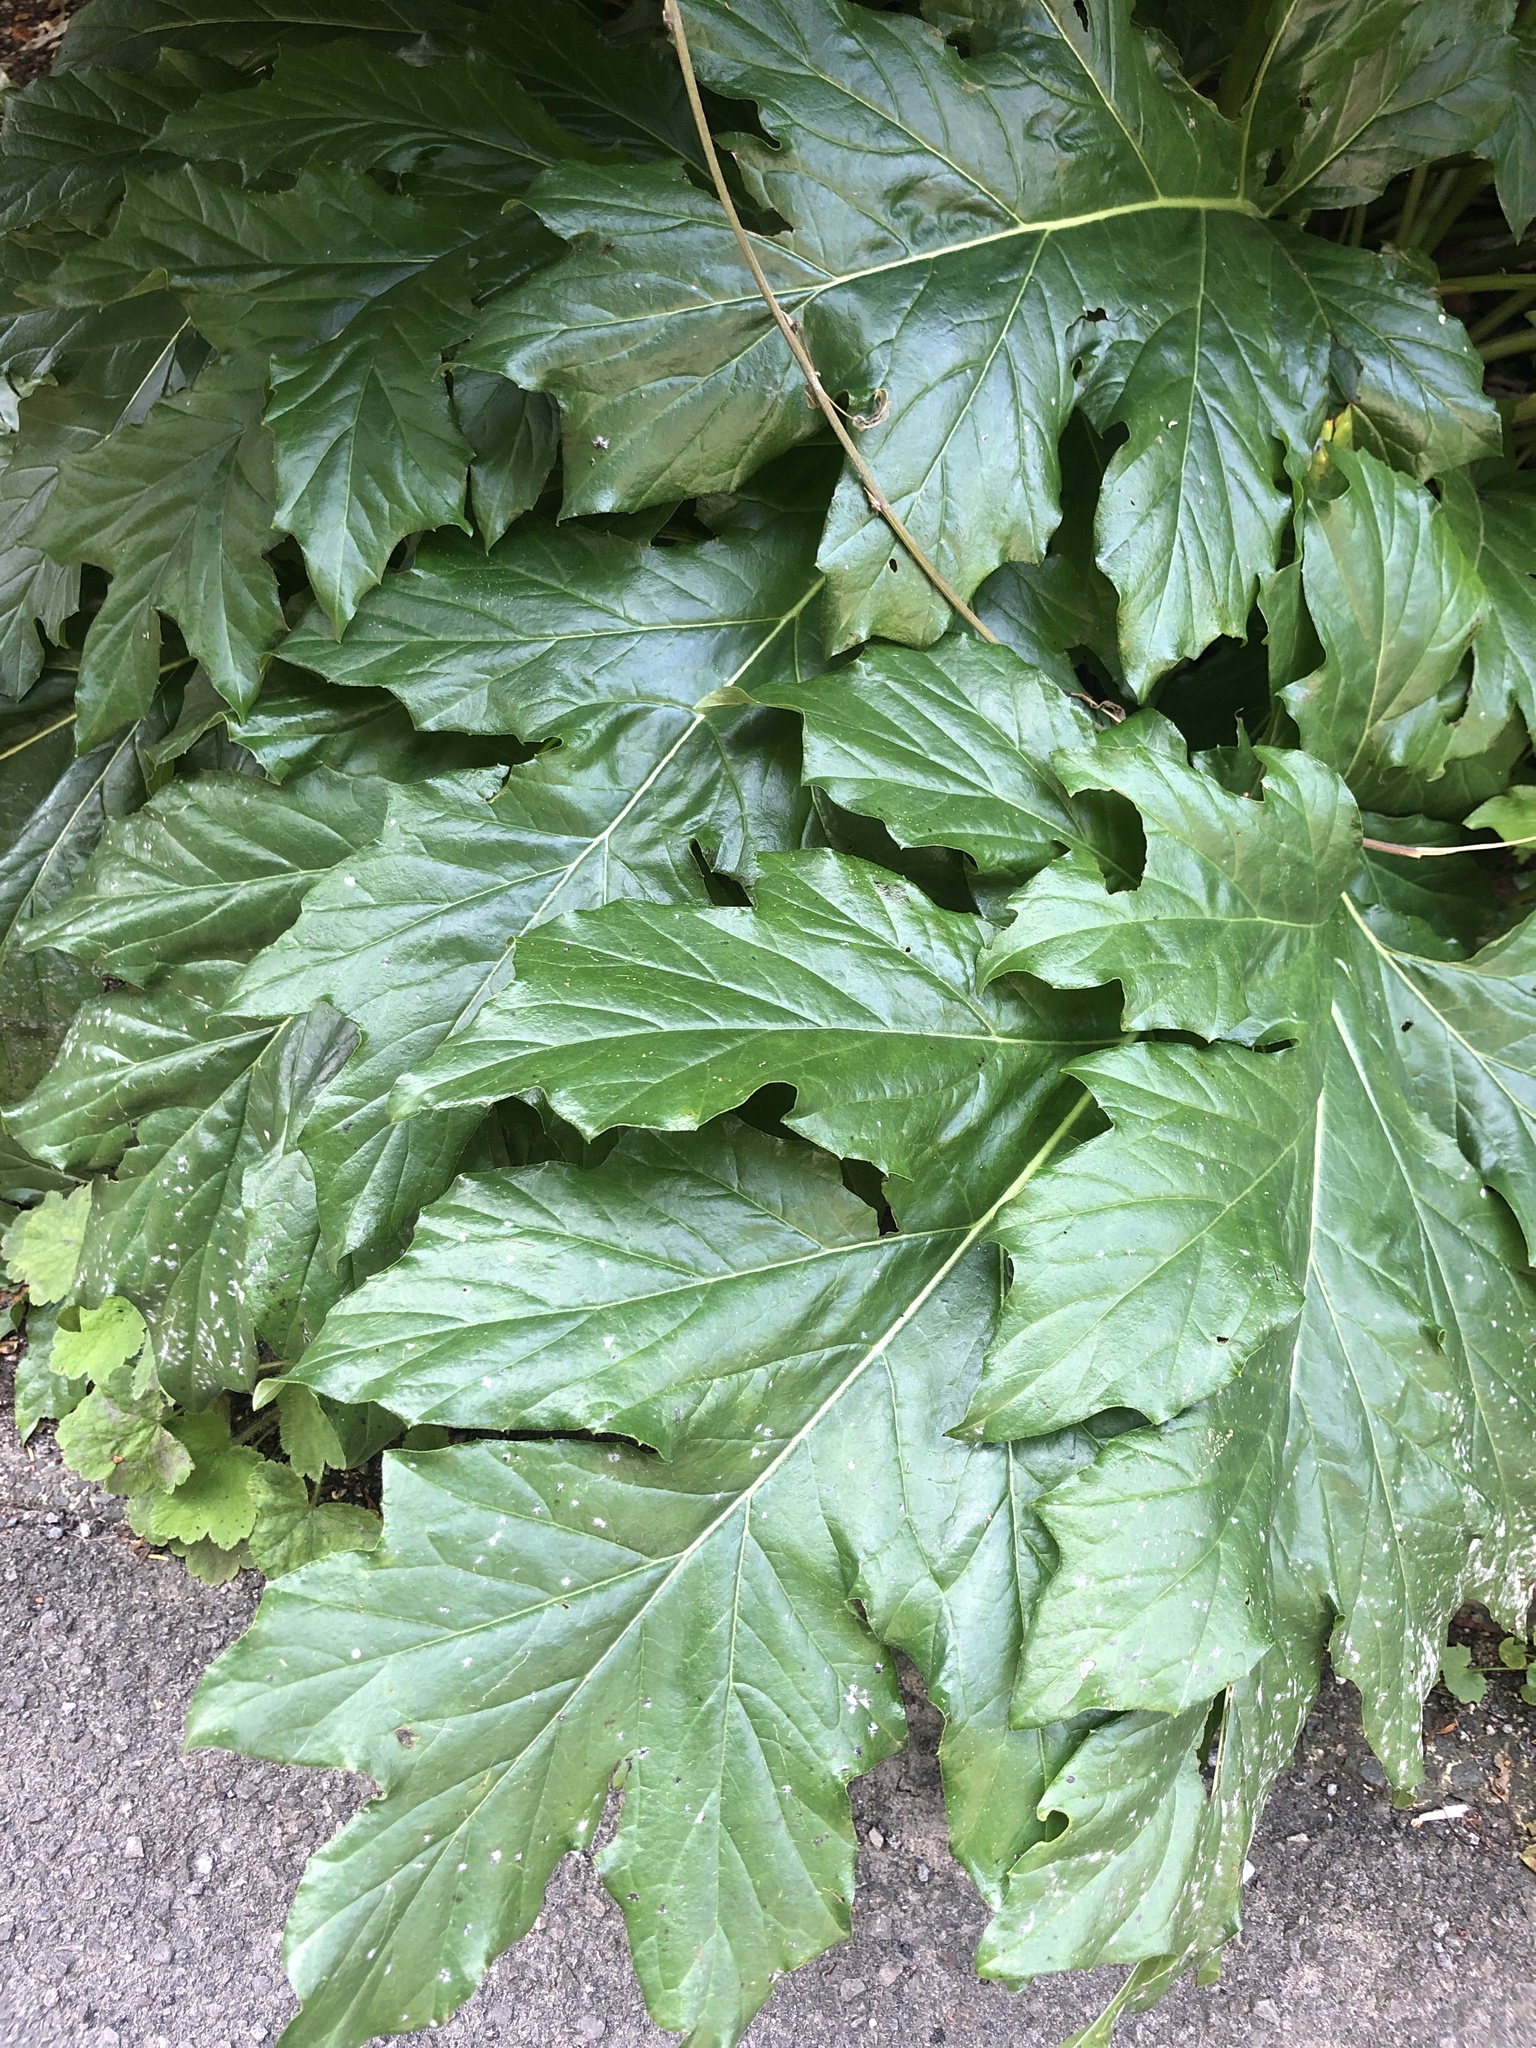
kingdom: Plantae
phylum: Tracheophyta
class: Magnoliopsida
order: Lamiales
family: Acanthaceae
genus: Acanthus
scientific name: Acanthus mollis
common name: Bear's-breech
